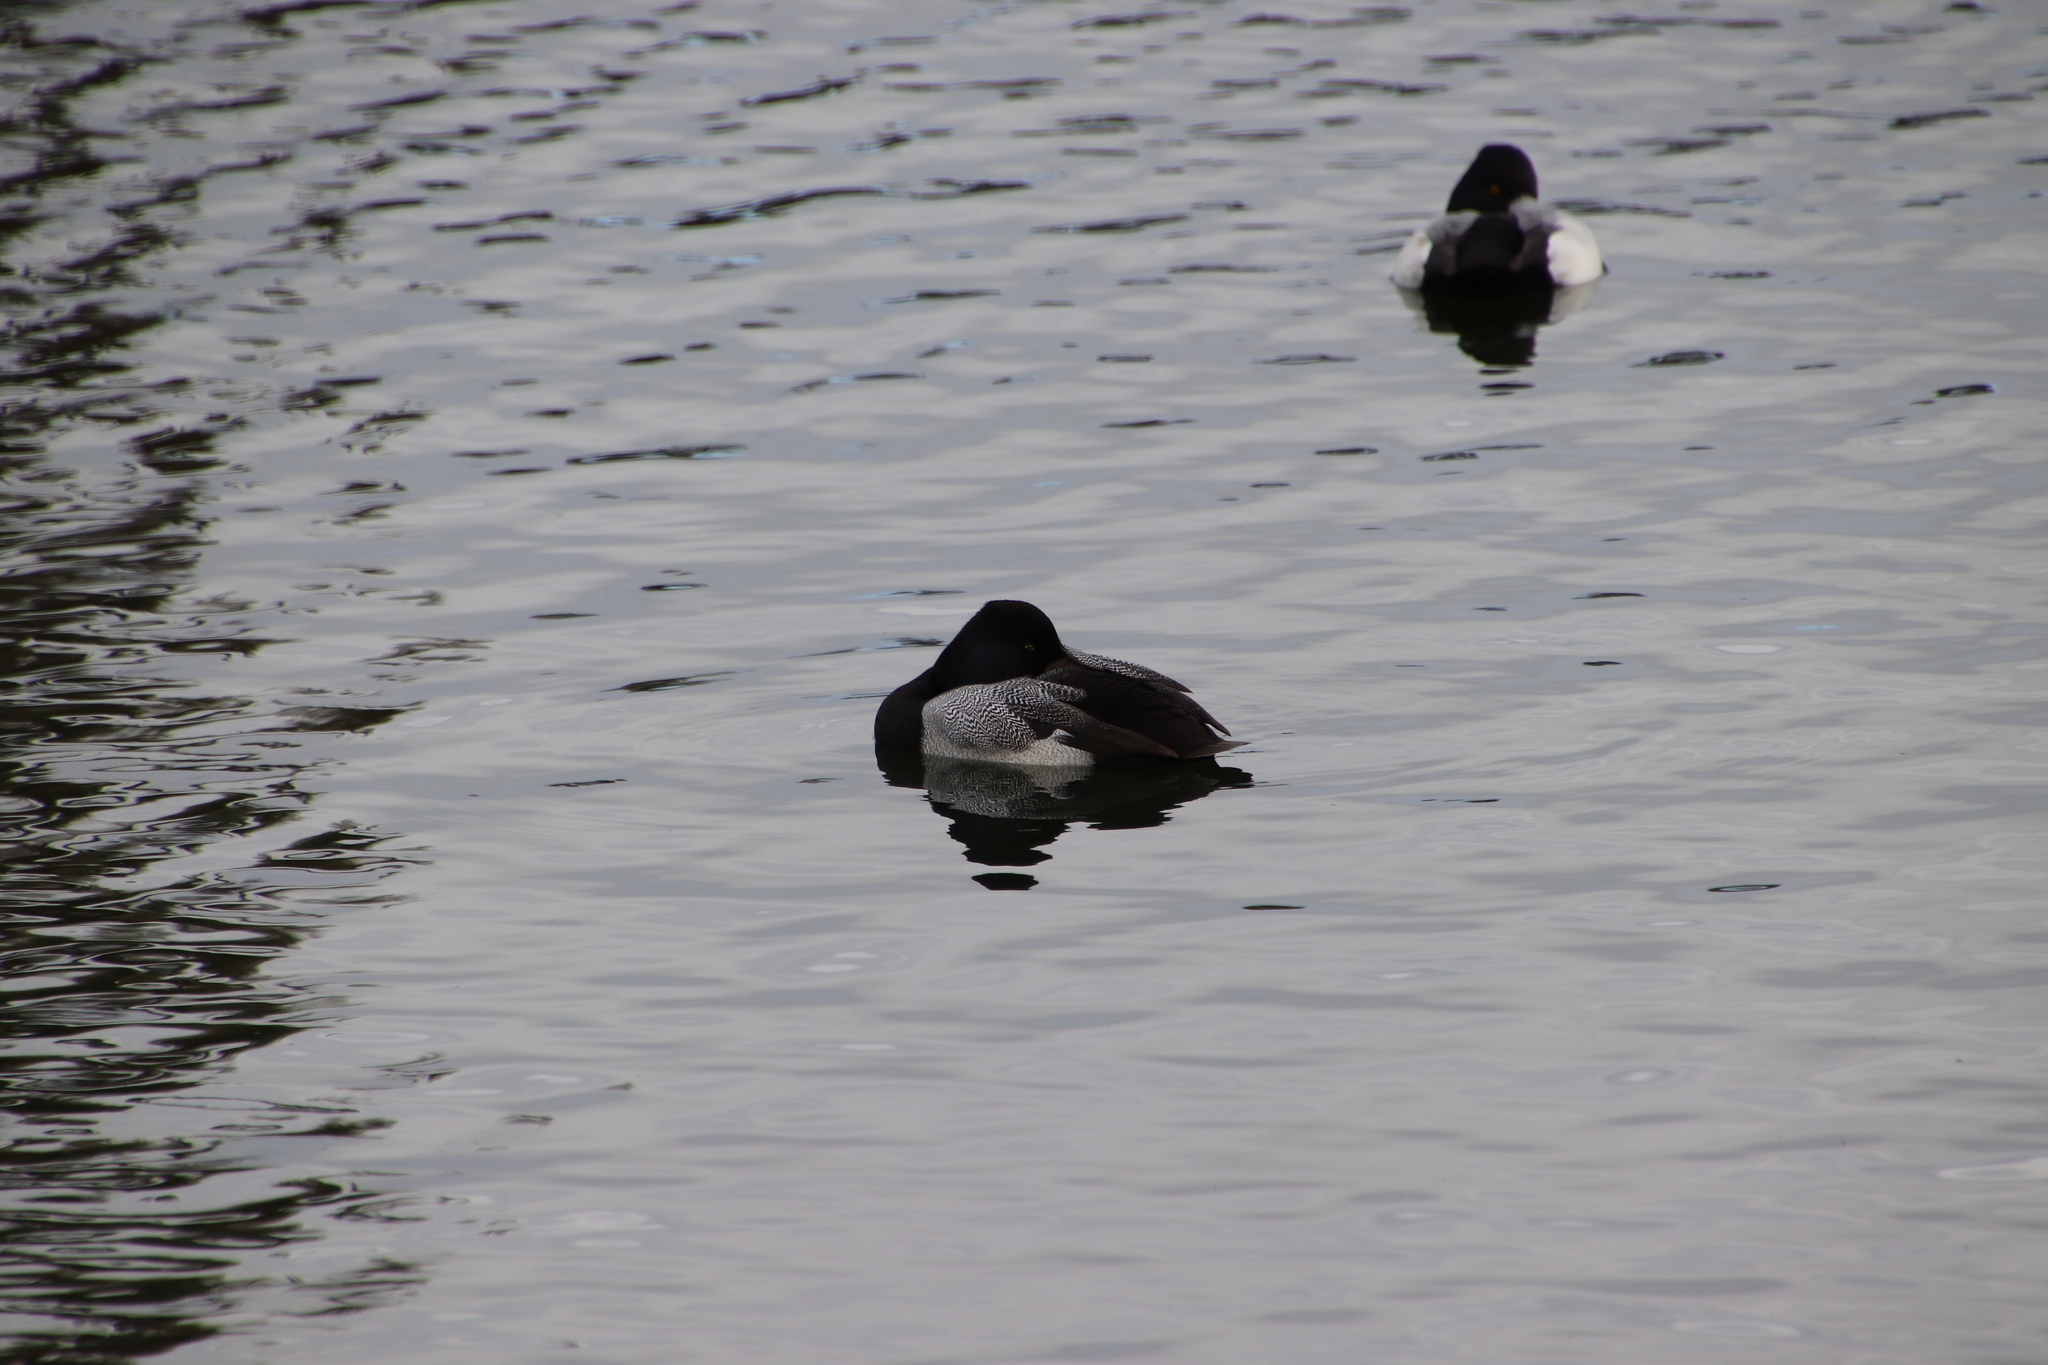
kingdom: Animalia
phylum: Chordata
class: Aves
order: Anseriformes
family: Anatidae
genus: Aythya
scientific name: Aythya affinis
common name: Lesser scaup
